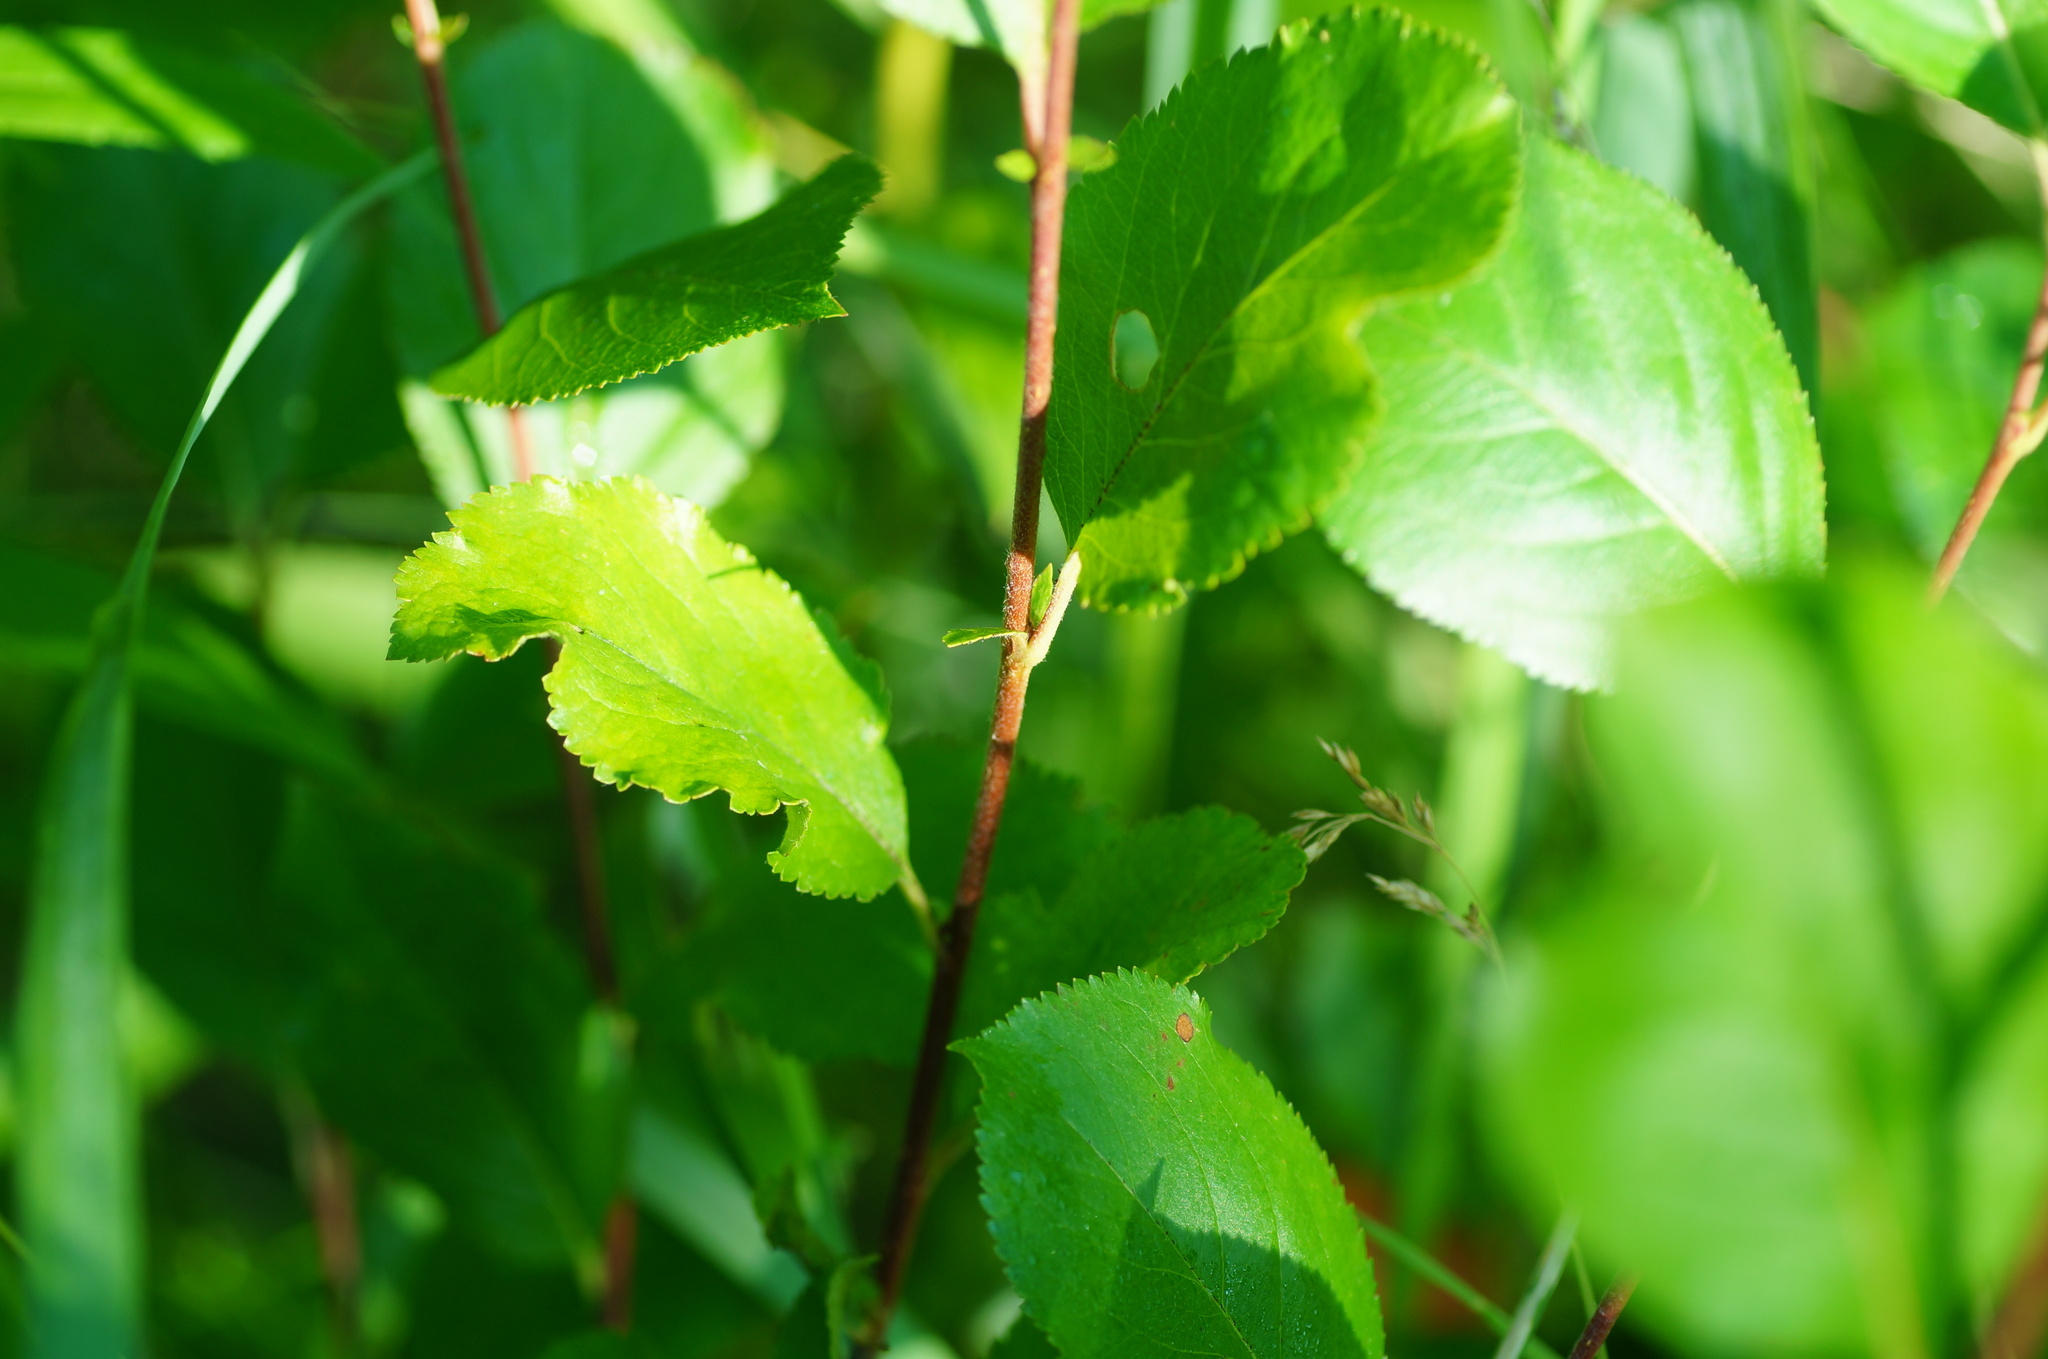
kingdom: Plantae
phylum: Tracheophyta
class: Magnoliopsida
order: Rosales
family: Rosaceae
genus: Sorbaronia
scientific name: Sorbaronia arsenii
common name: Arsène's mountain-ash
